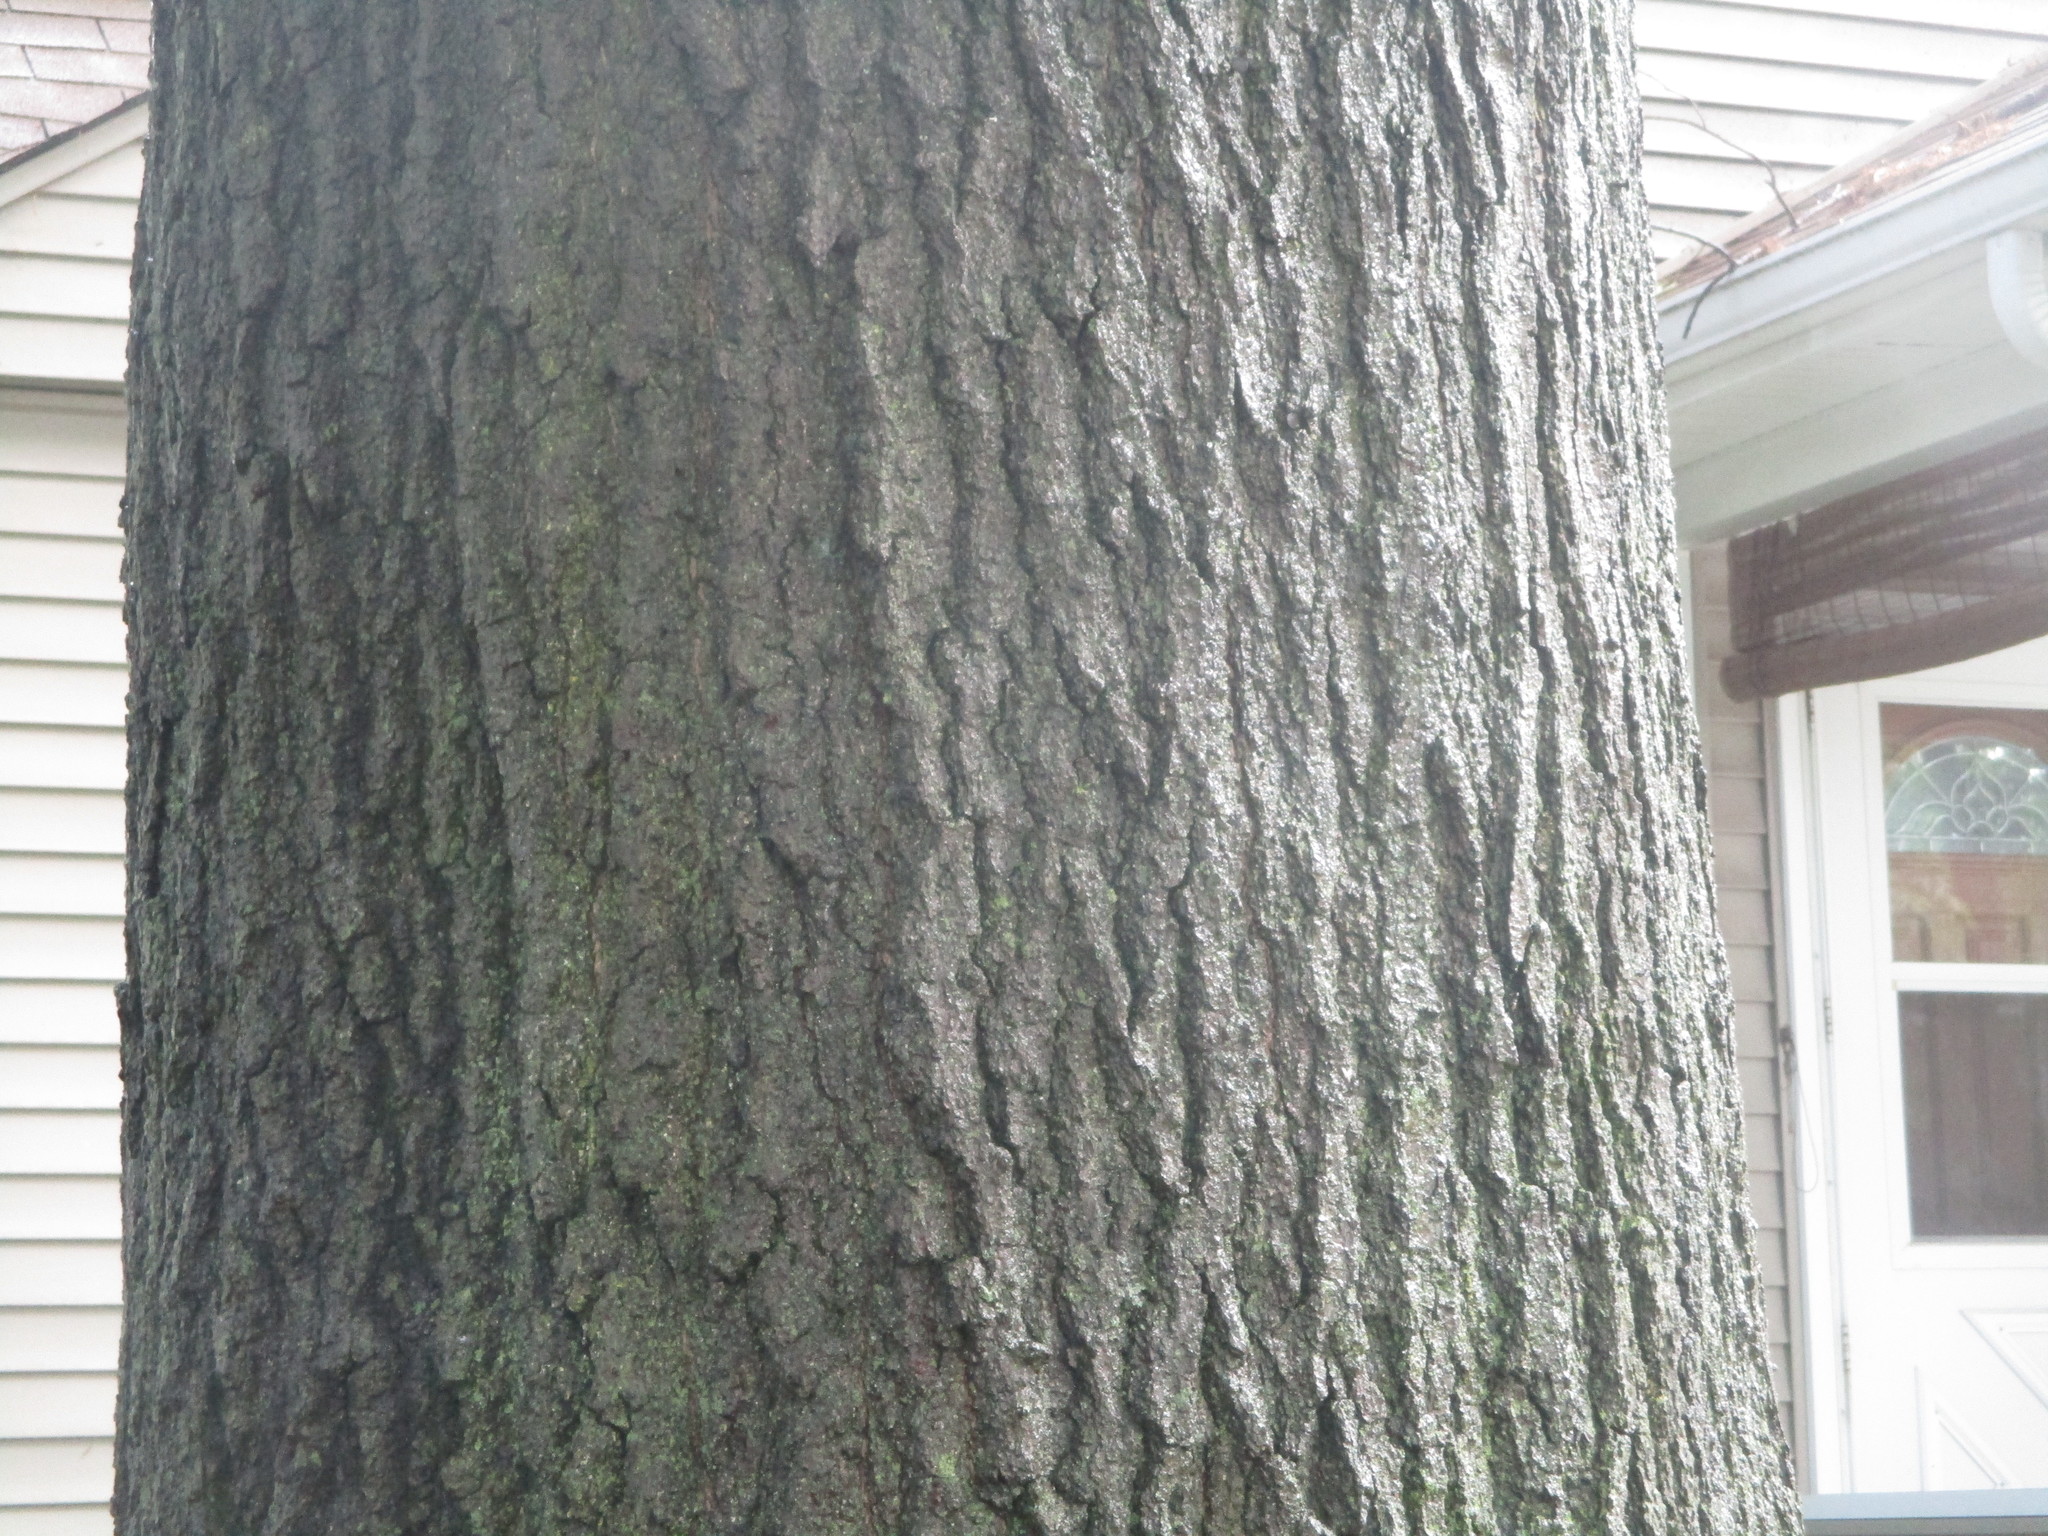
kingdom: Plantae
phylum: Tracheophyta
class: Magnoliopsida
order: Fagales
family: Fagaceae
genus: Quercus
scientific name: Quercus rubra
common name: Red oak
